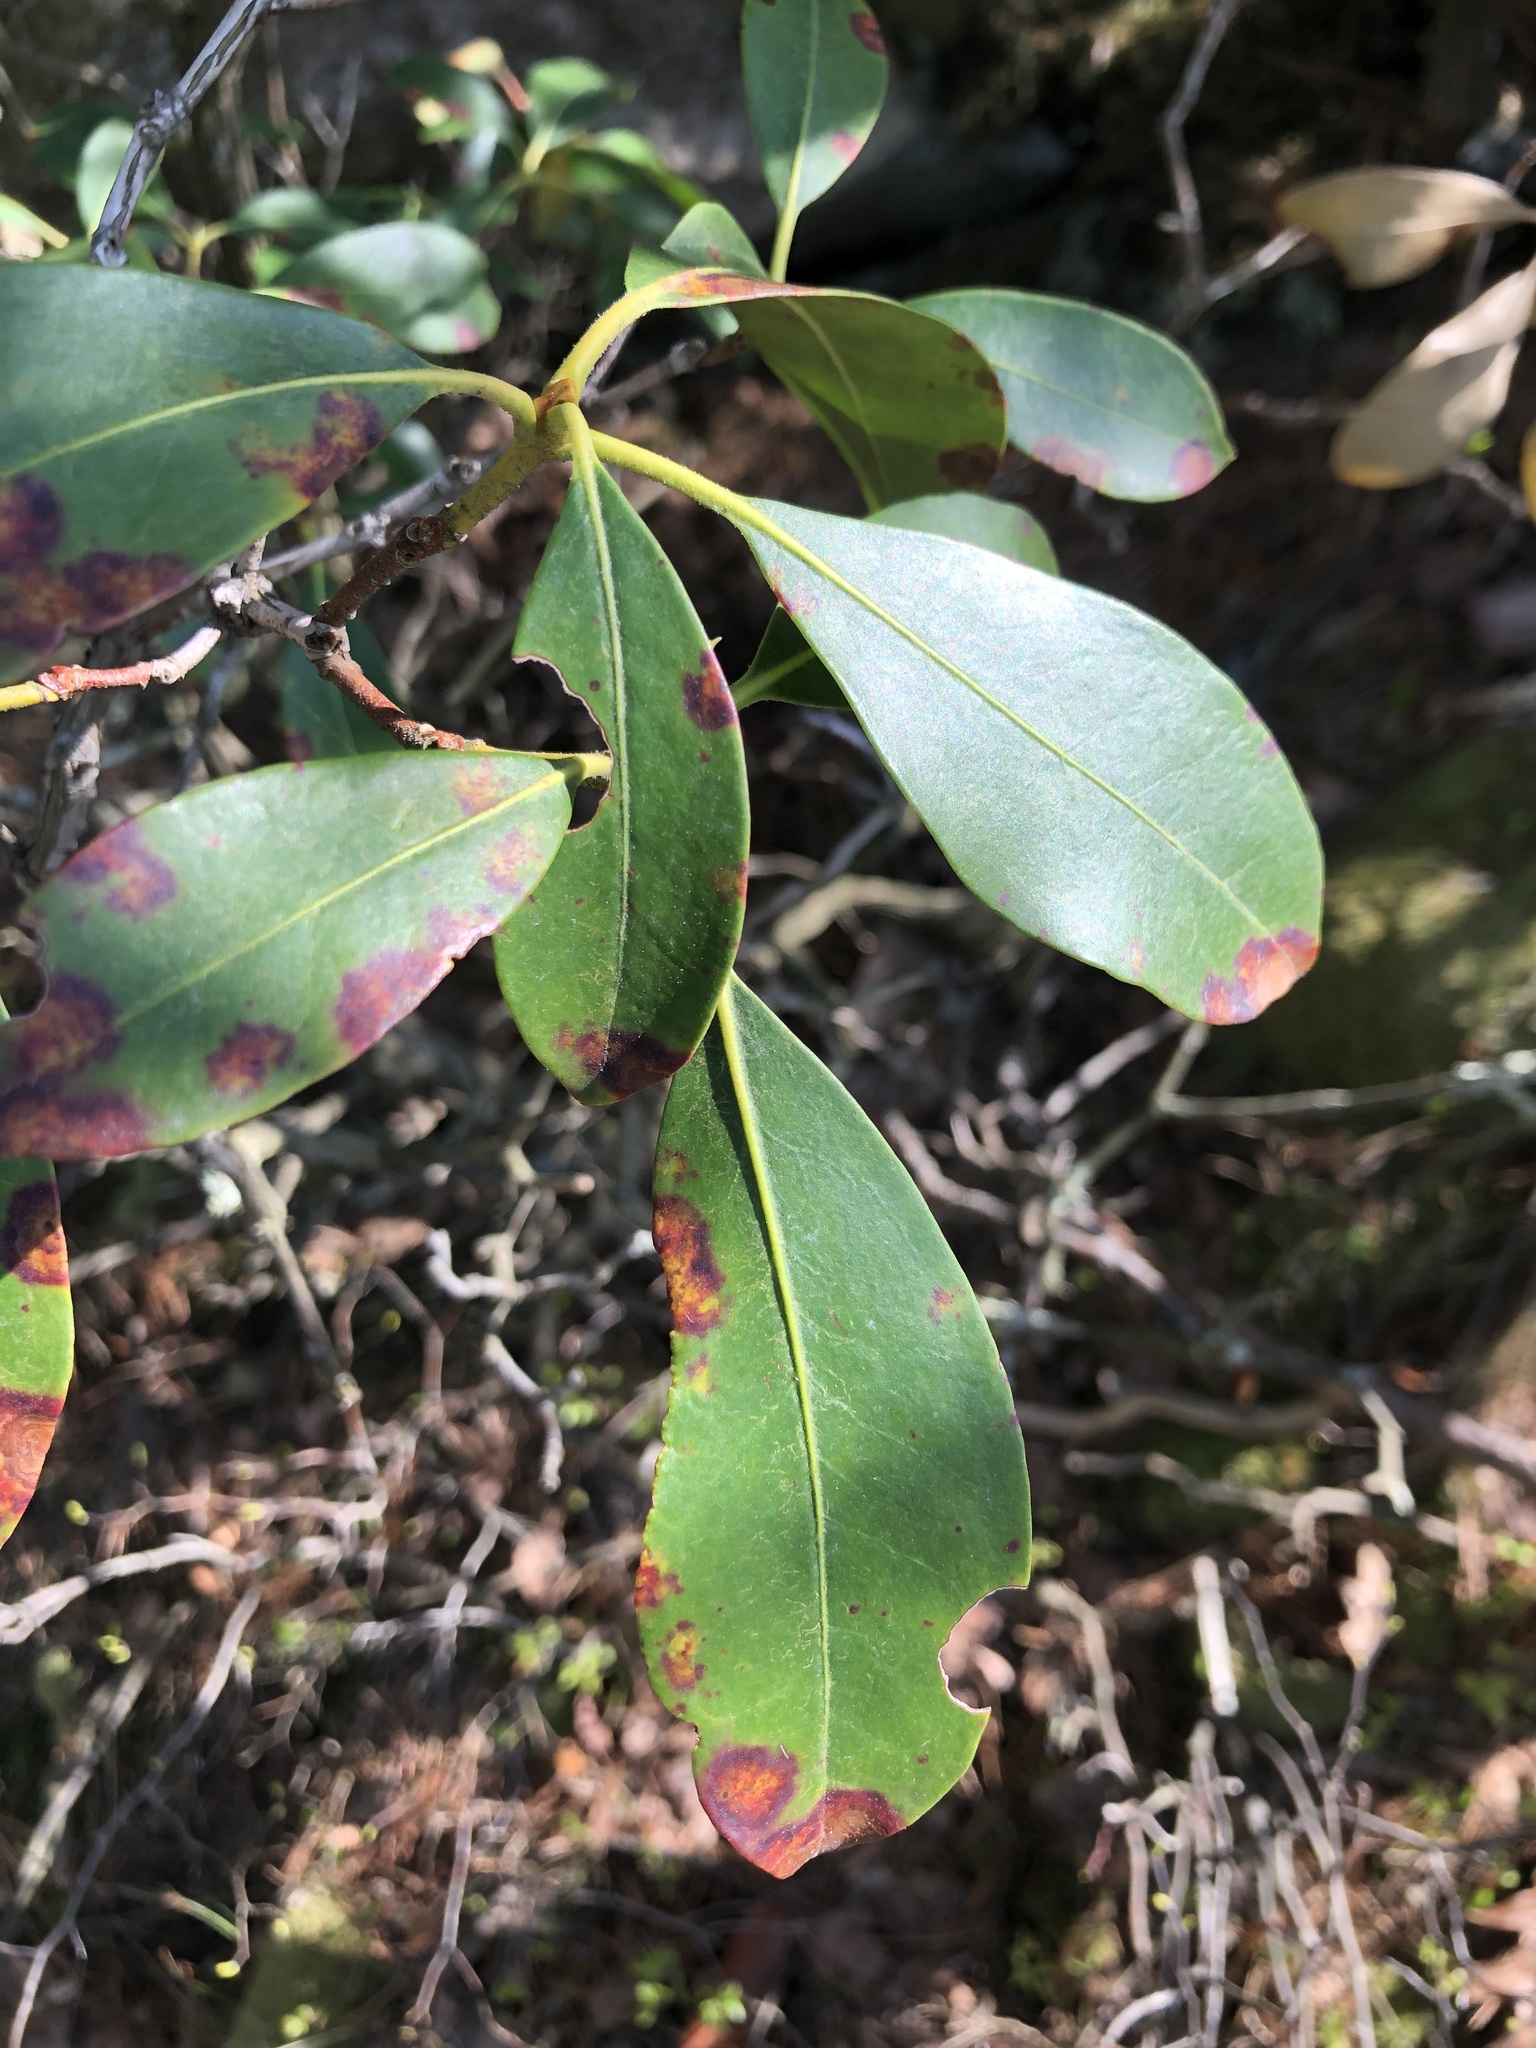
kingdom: Fungi
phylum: Ascomycota
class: Sordariomycetes
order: Diaporthales
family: Diaporthaceae
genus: Diaporthe
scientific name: Diaporthe kalmiae
